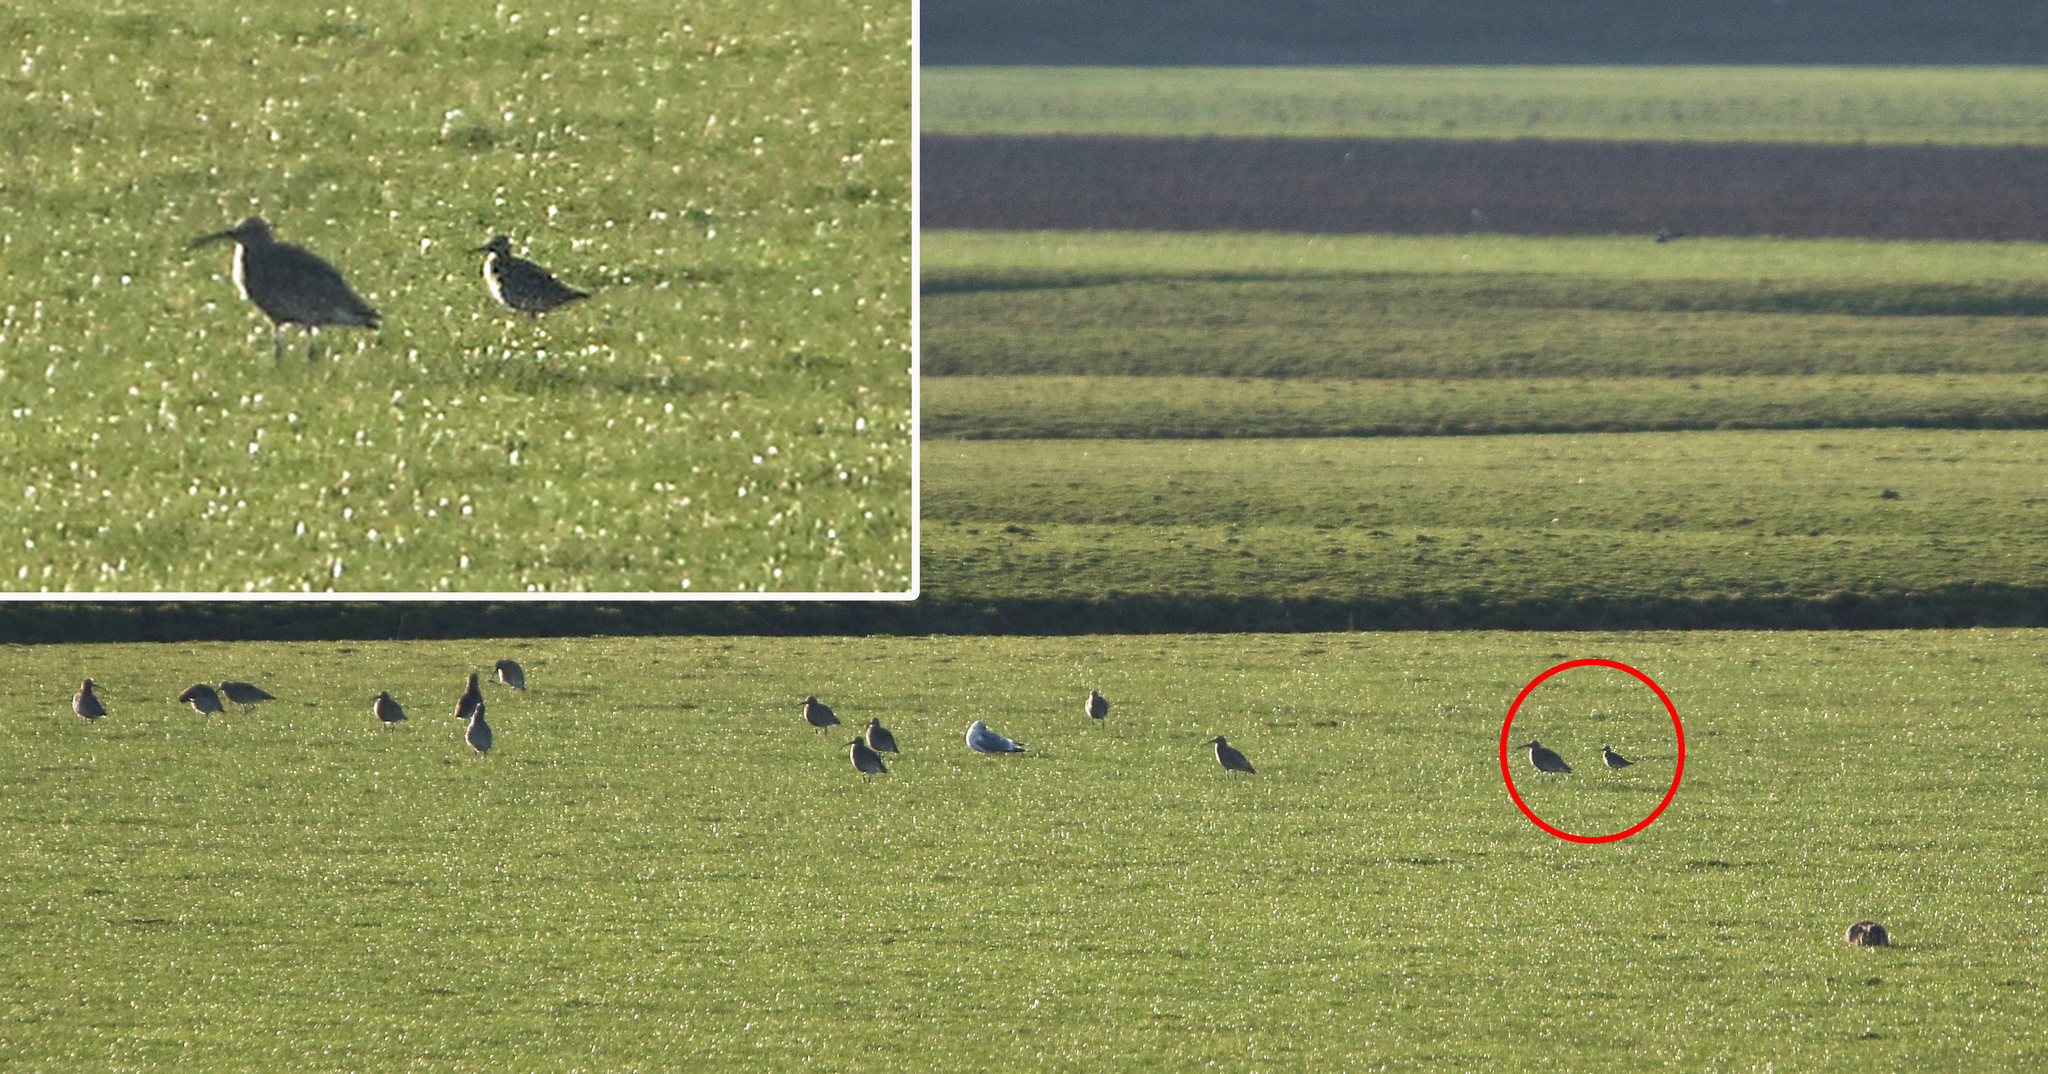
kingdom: Animalia
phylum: Chordata
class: Aves
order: Charadriiformes
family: Scolopacidae
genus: Numenius
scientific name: Numenius minutus
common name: Little curlew
